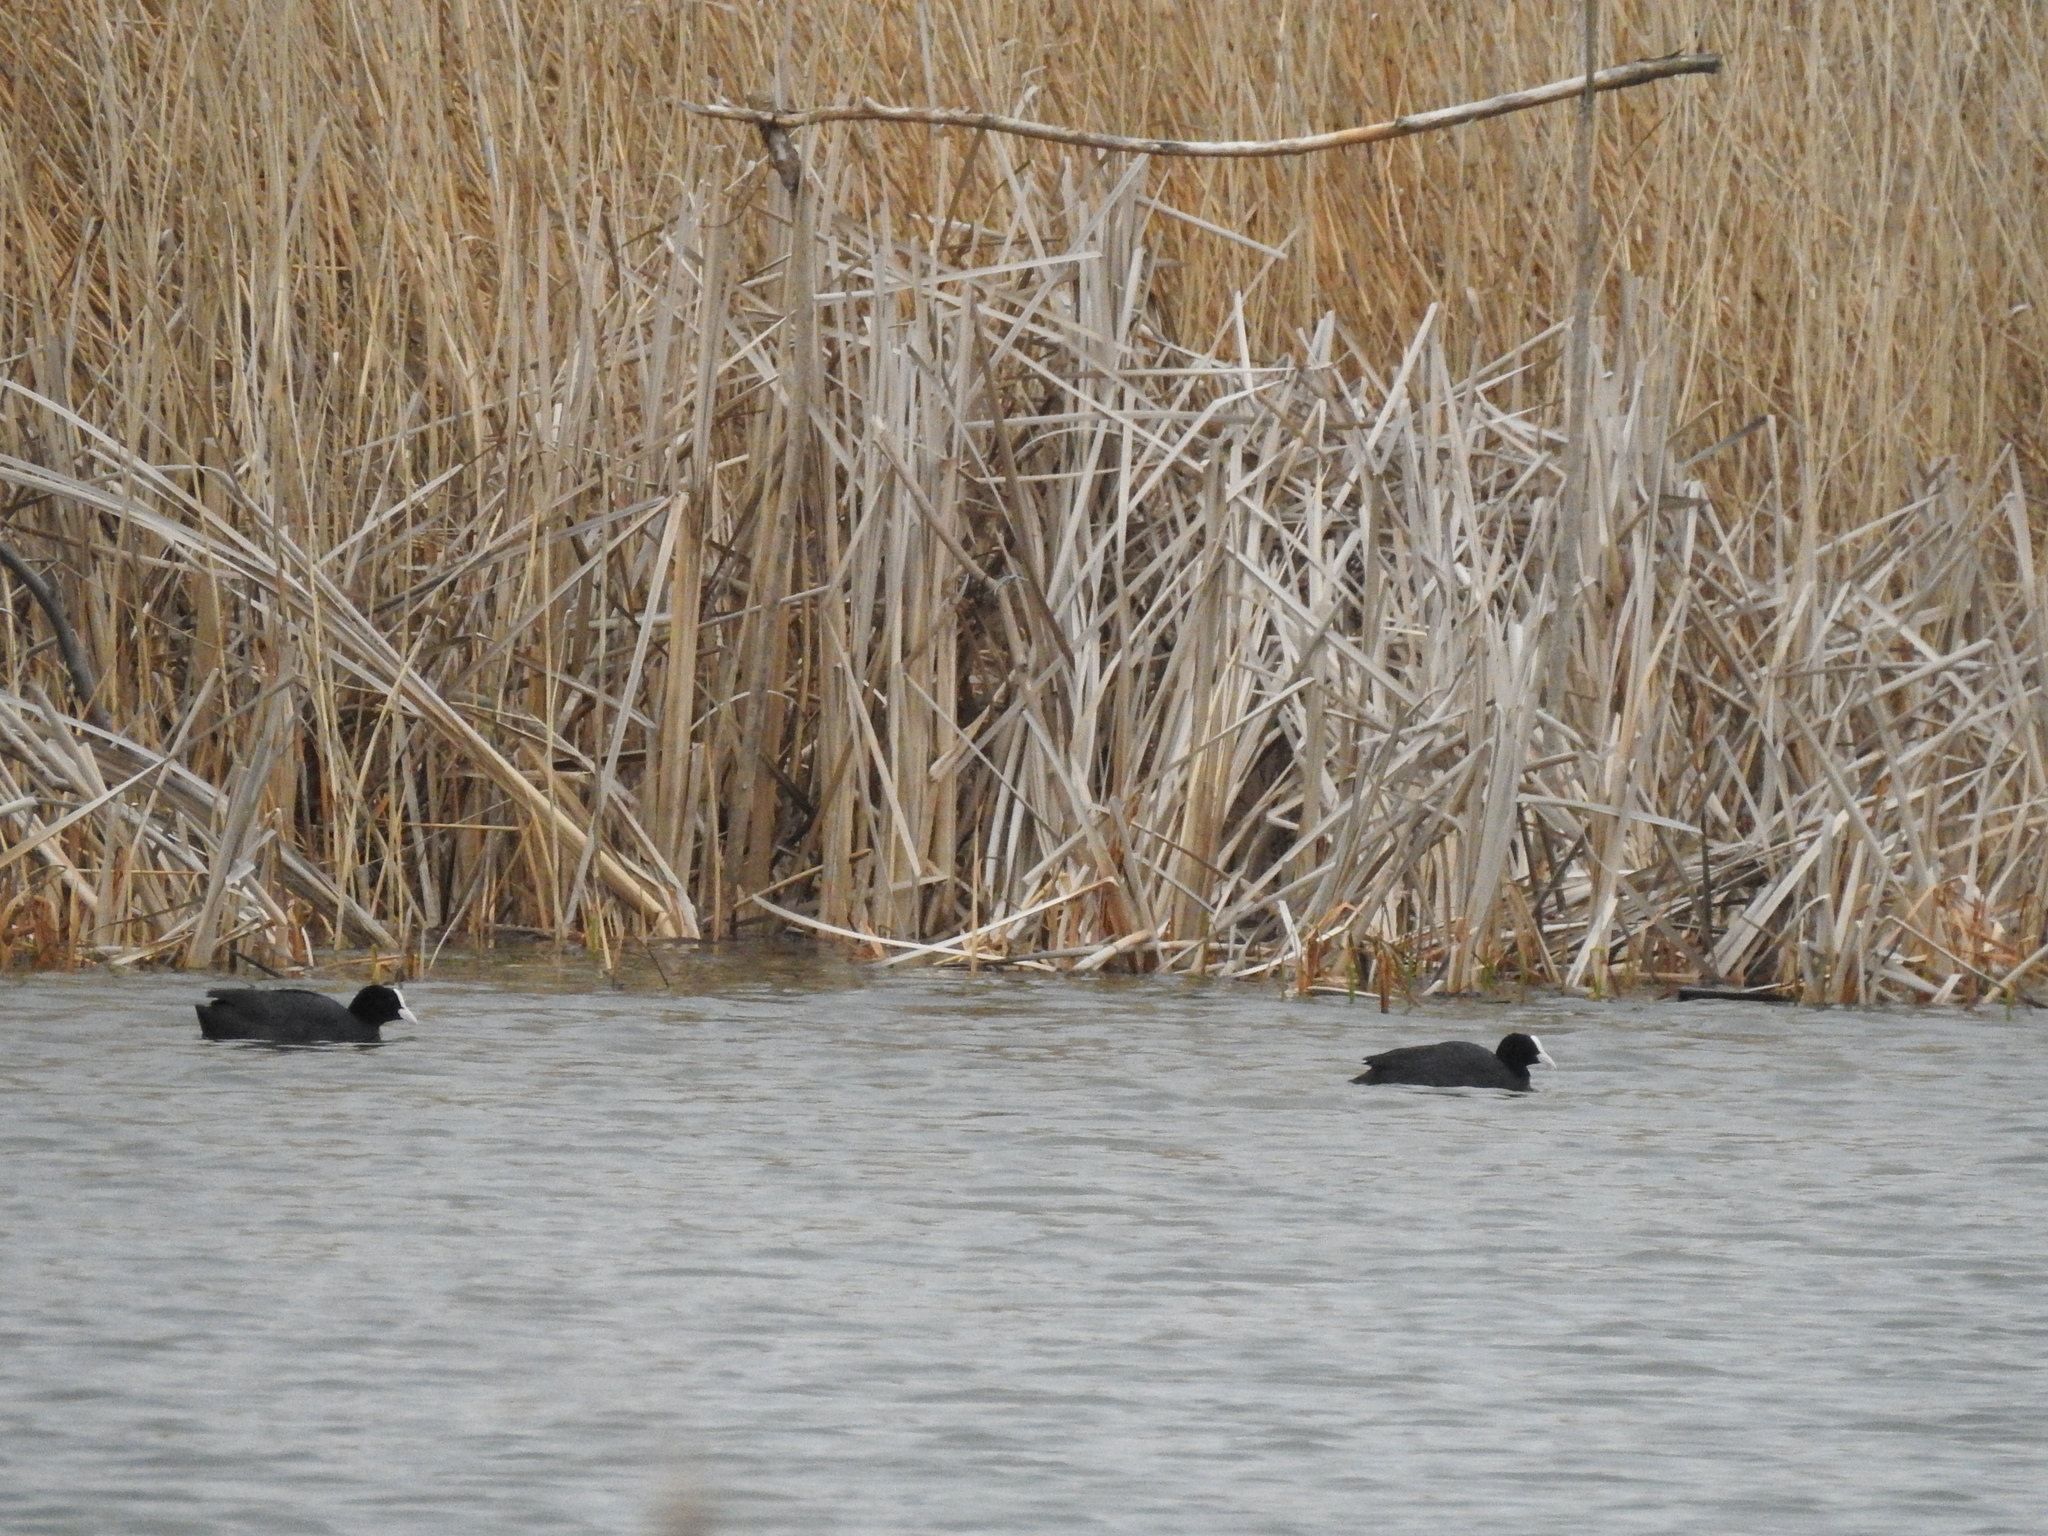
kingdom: Animalia
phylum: Chordata
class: Aves
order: Gruiformes
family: Rallidae
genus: Fulica
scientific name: Fulica atra
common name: Eurasian coot
